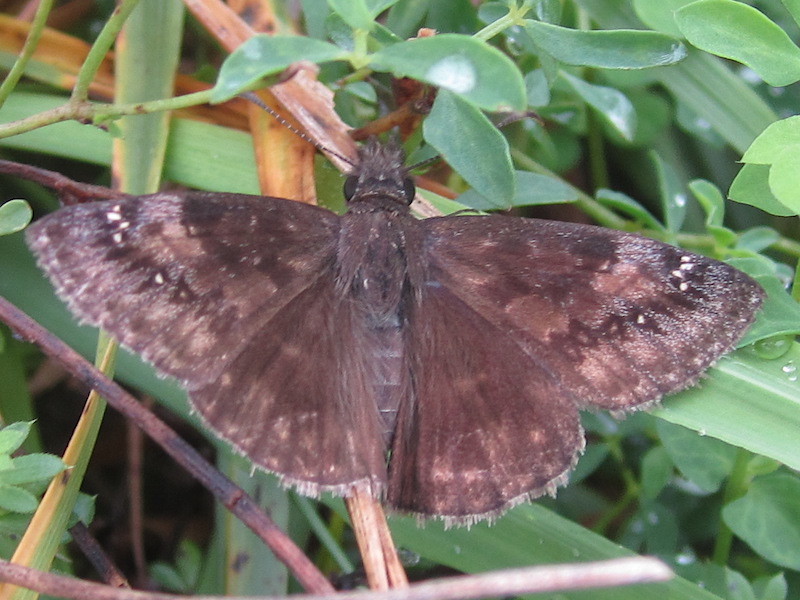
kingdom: Animalia
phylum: Arthropoda
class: Insecta
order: Lepidoptera
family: Hesperiidae
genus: Erynnis
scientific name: Erynnis baptisiae
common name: Wild indigo duskywing
